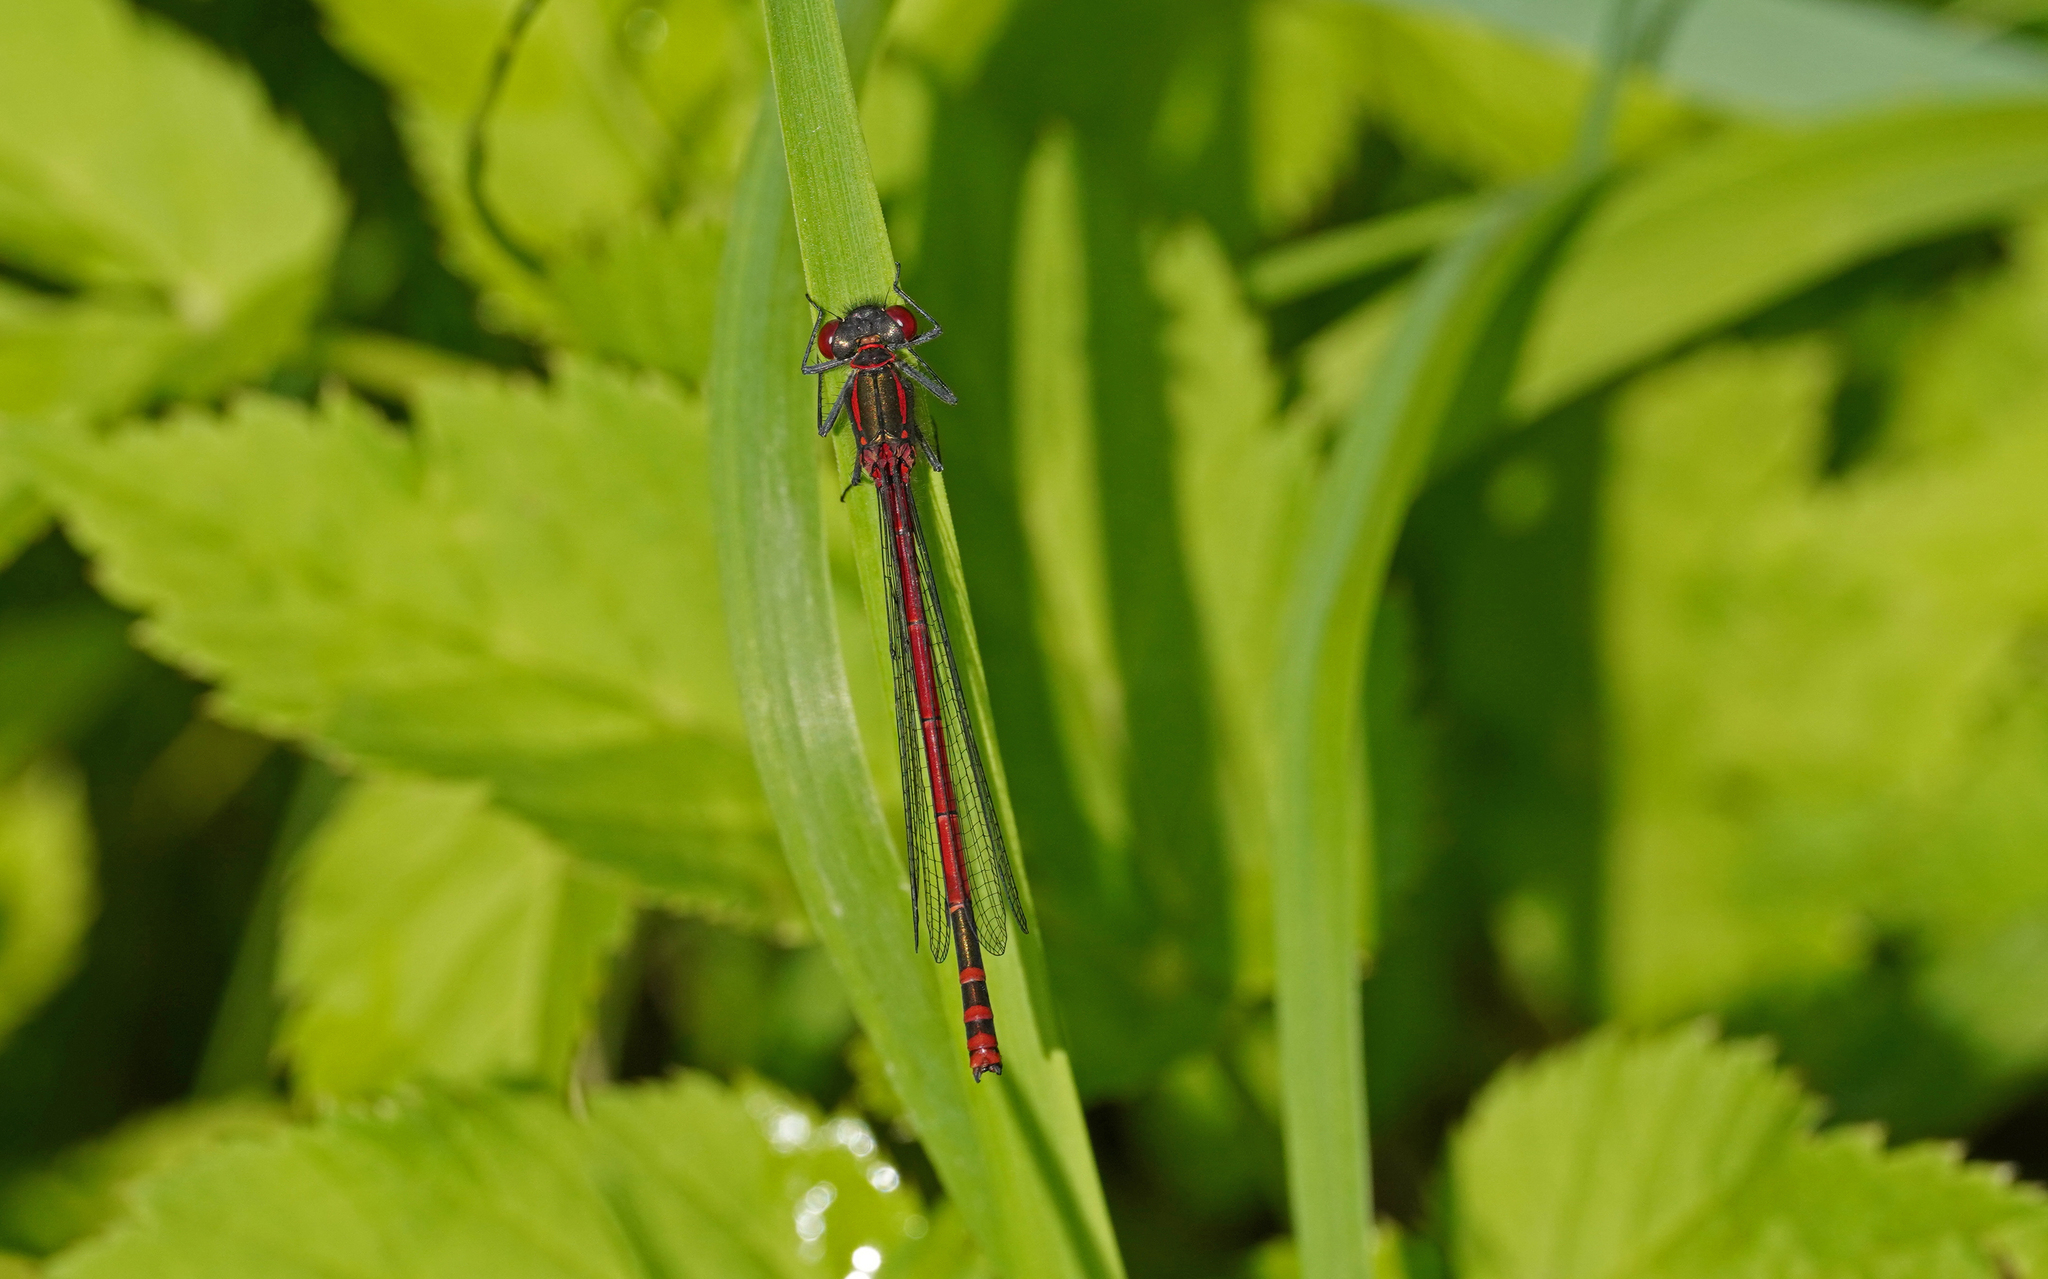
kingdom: Animalia
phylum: Arthropoda
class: Insecta
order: Odonata
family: Coenagrionidae
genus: Pyrrhosoma
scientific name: Pyrrhosoma nymphula
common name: Large red damsel
